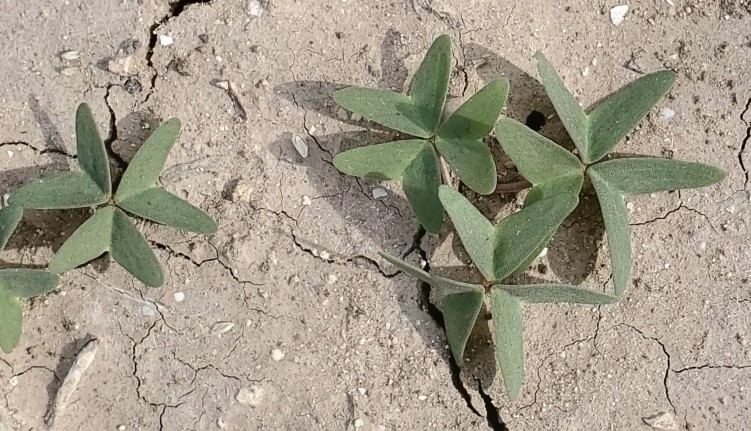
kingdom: Plantae
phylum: Tracheophyta
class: Magnoliopsida
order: Oxalidales
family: Oxalidaceae
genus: Oxalis
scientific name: Oxalis drummondii
